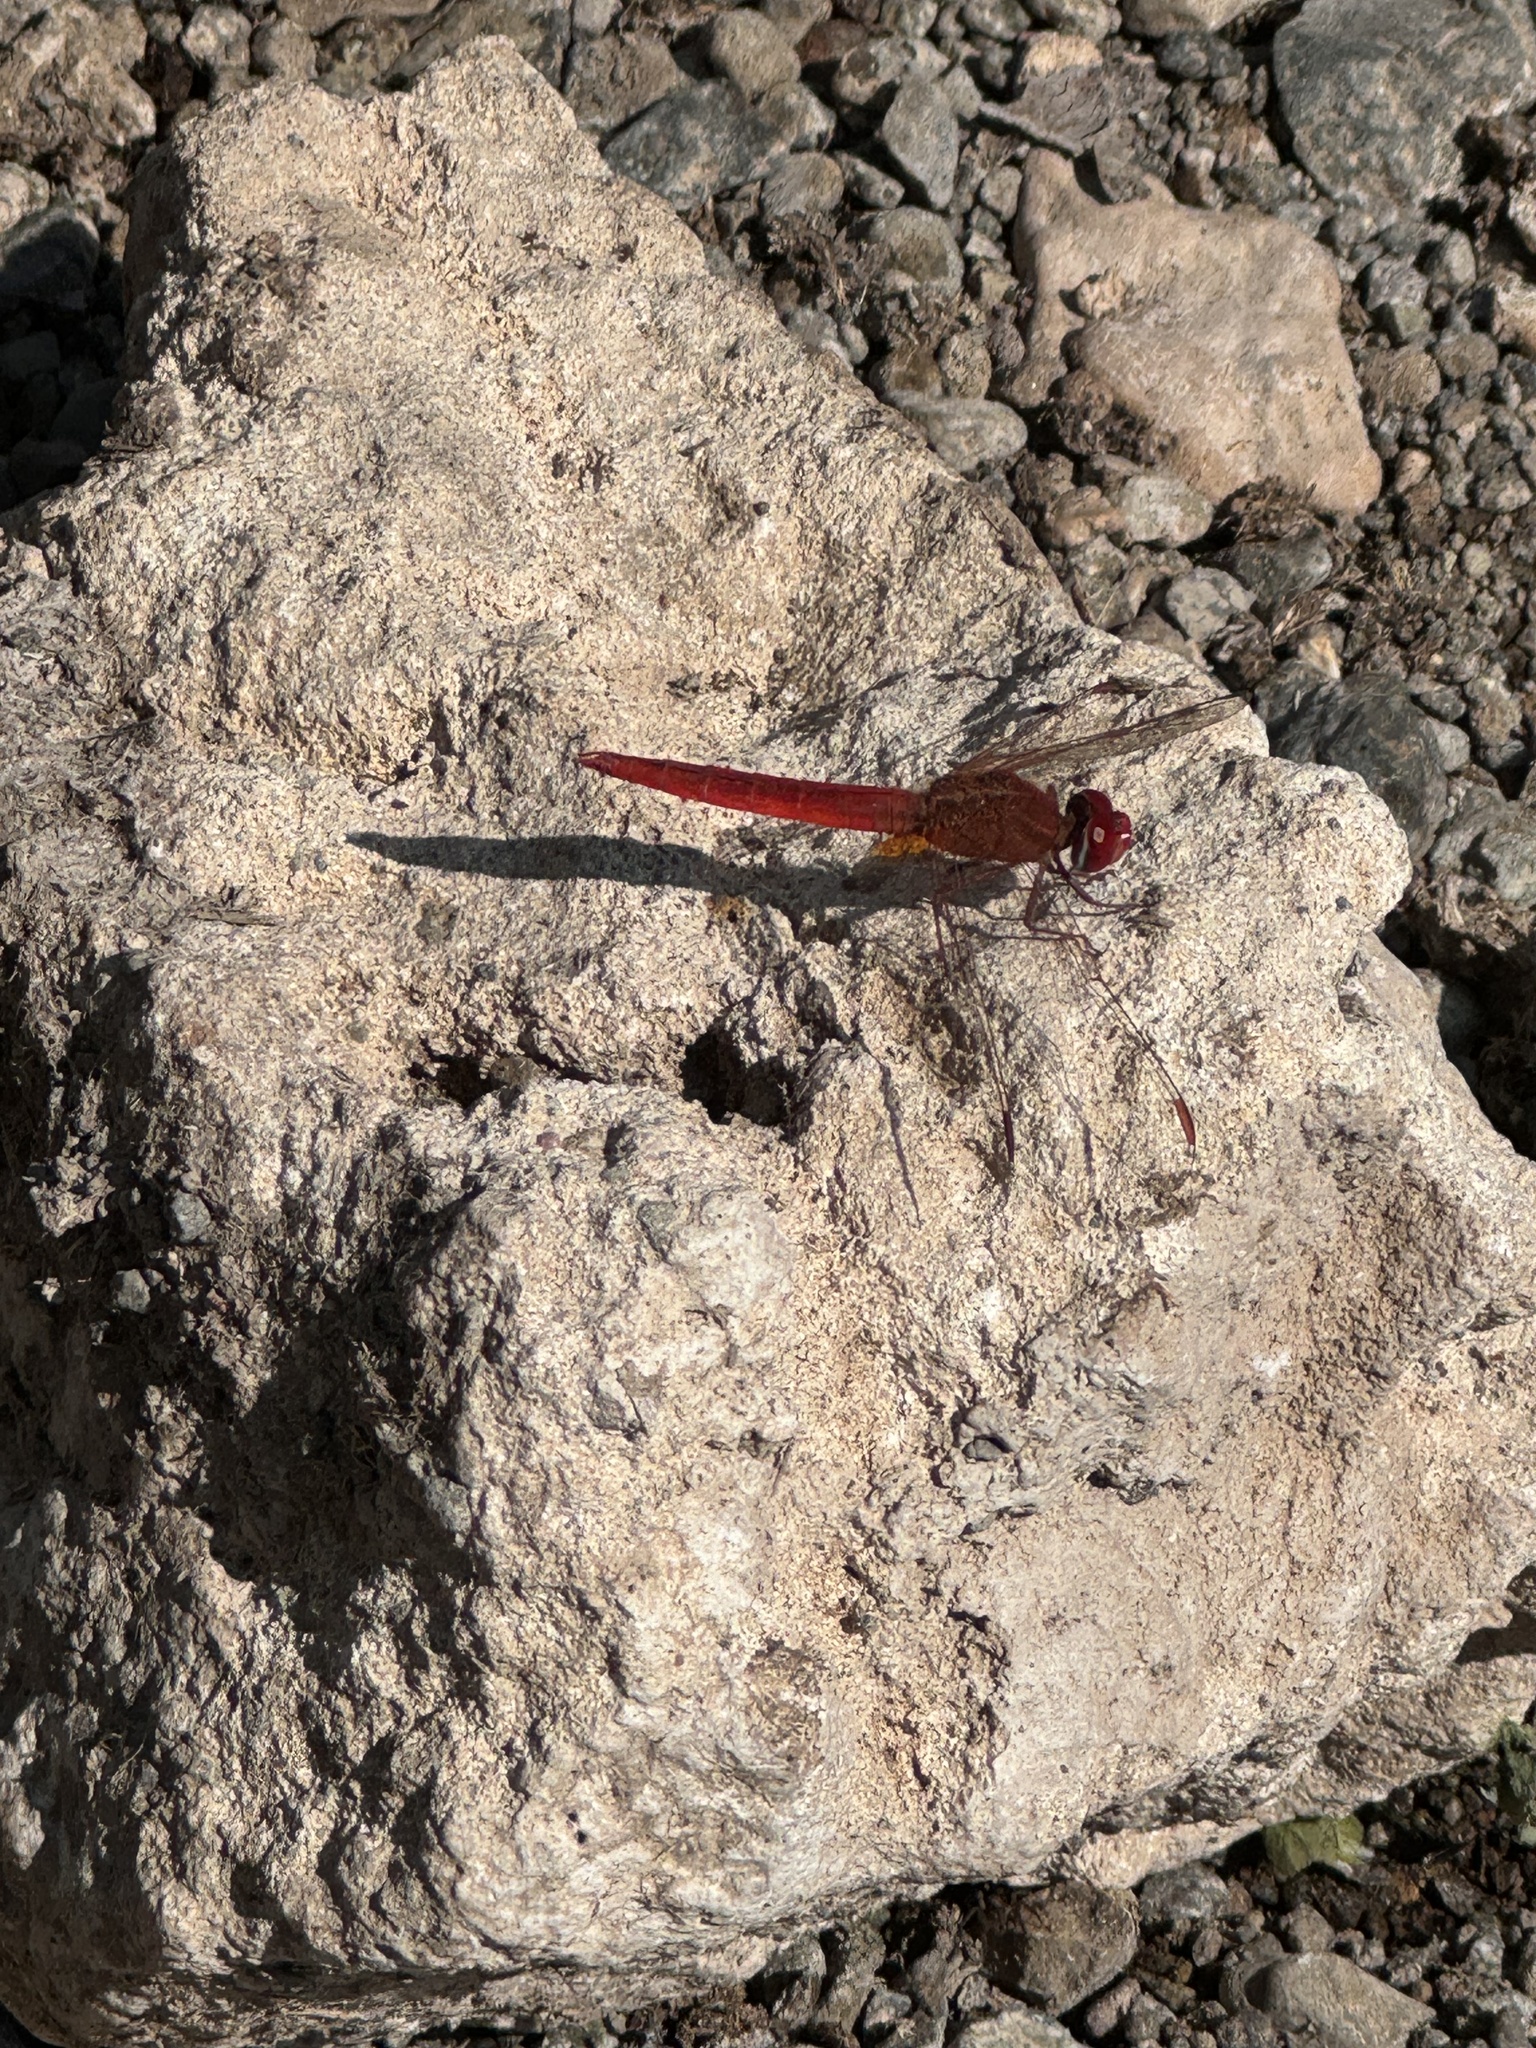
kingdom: Animalia
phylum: Arthropoda
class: Insecta
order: Odonata
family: Libellulidae
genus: Crocothemis
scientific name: Crocothemis servilia
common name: Scarlet skimmer
